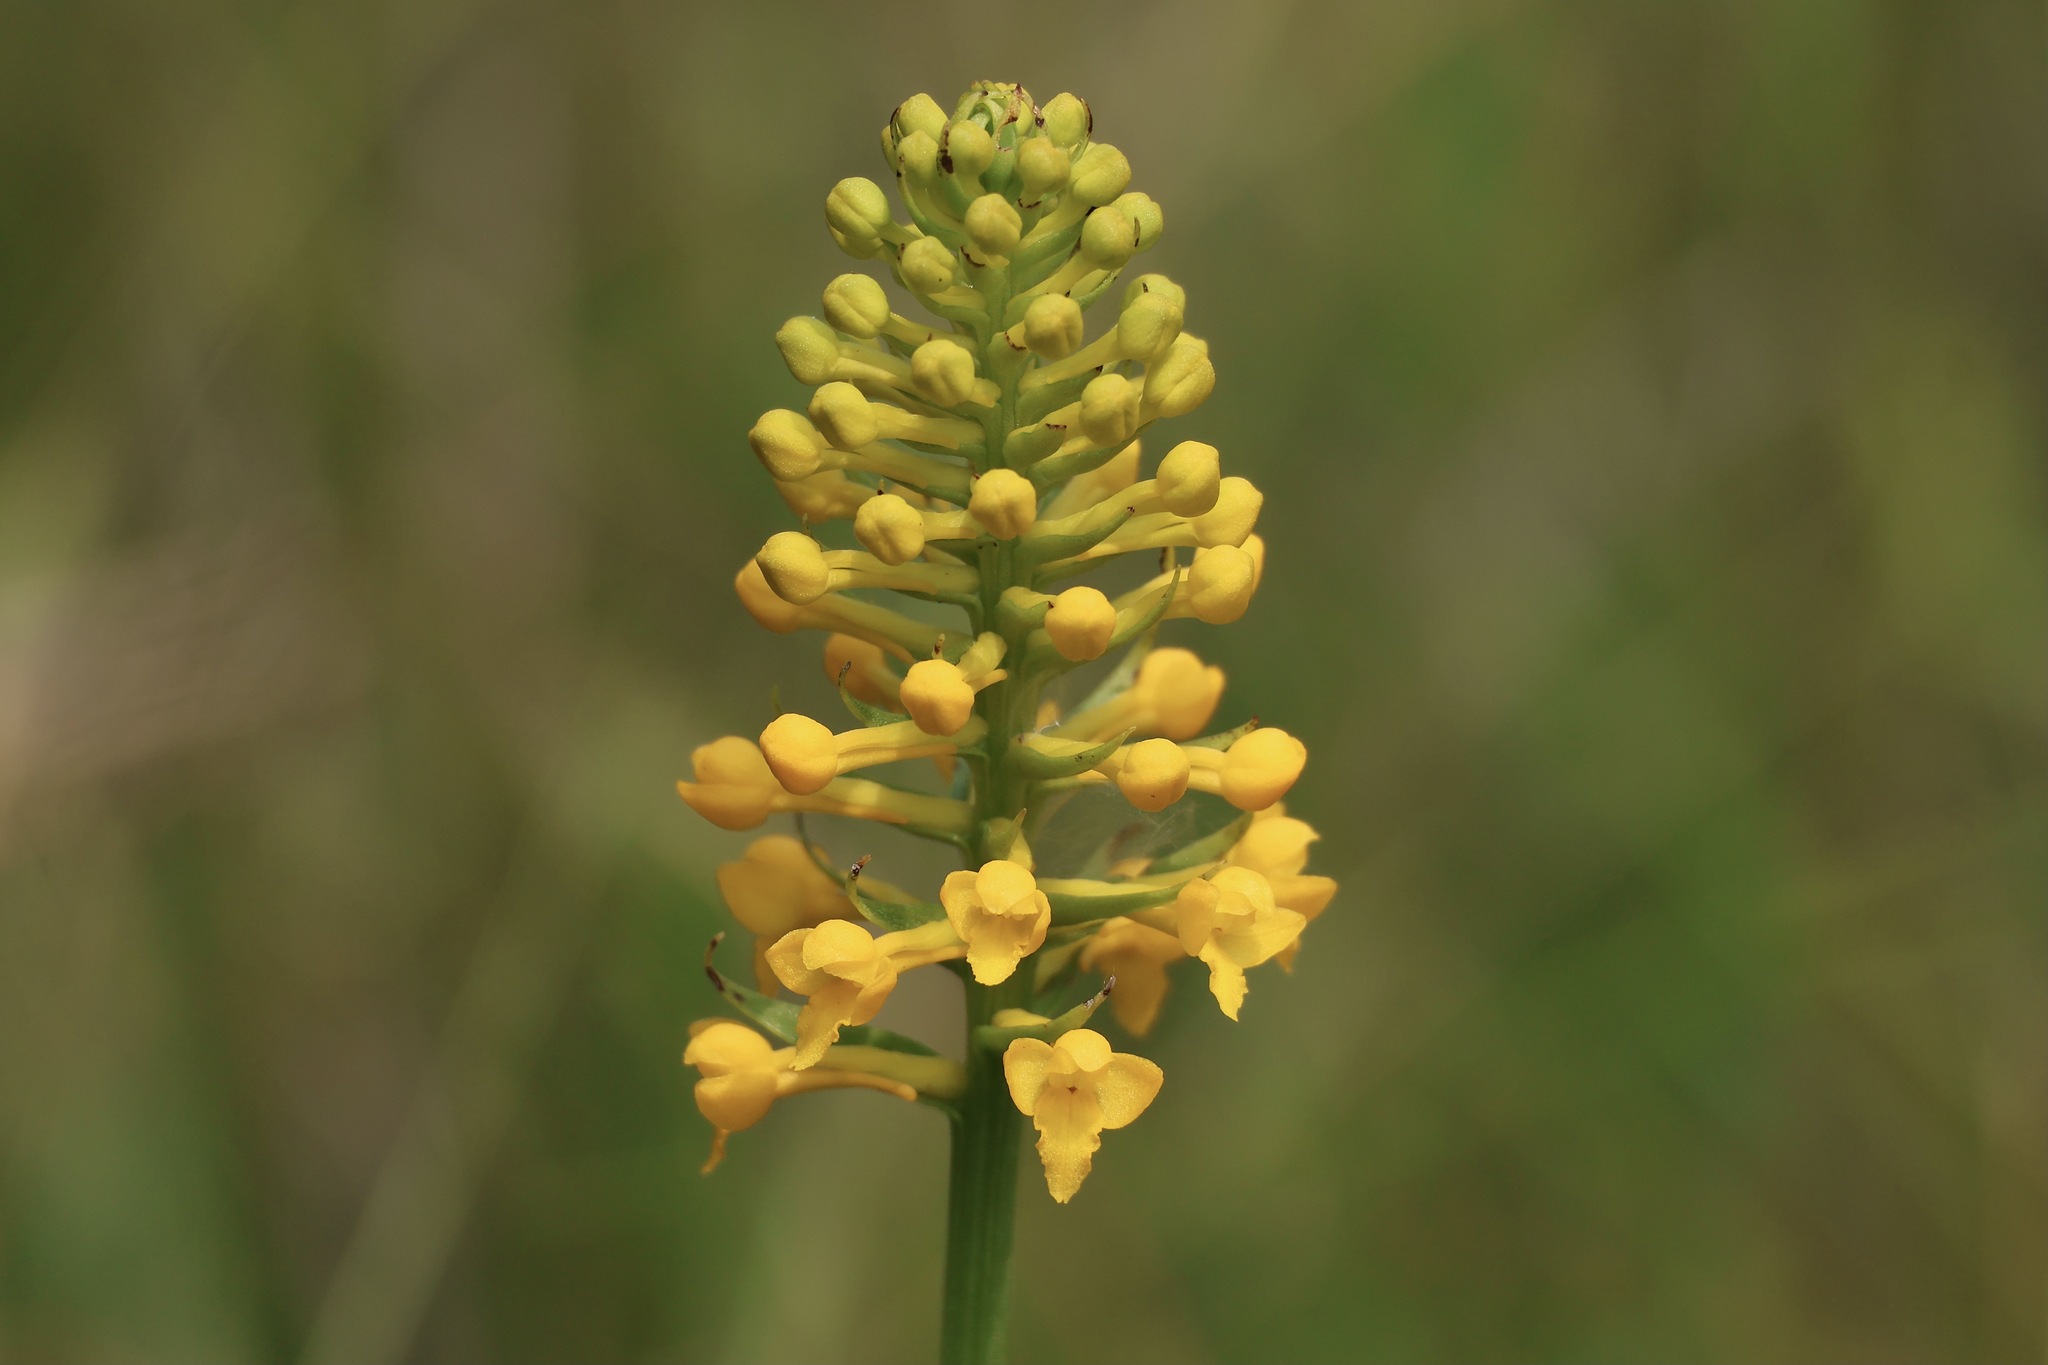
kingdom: Plantae
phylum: Tracheophyta
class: Liliopsida
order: Asparagales
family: Orchidaceae
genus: Platanthera
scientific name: Platanthera integra
